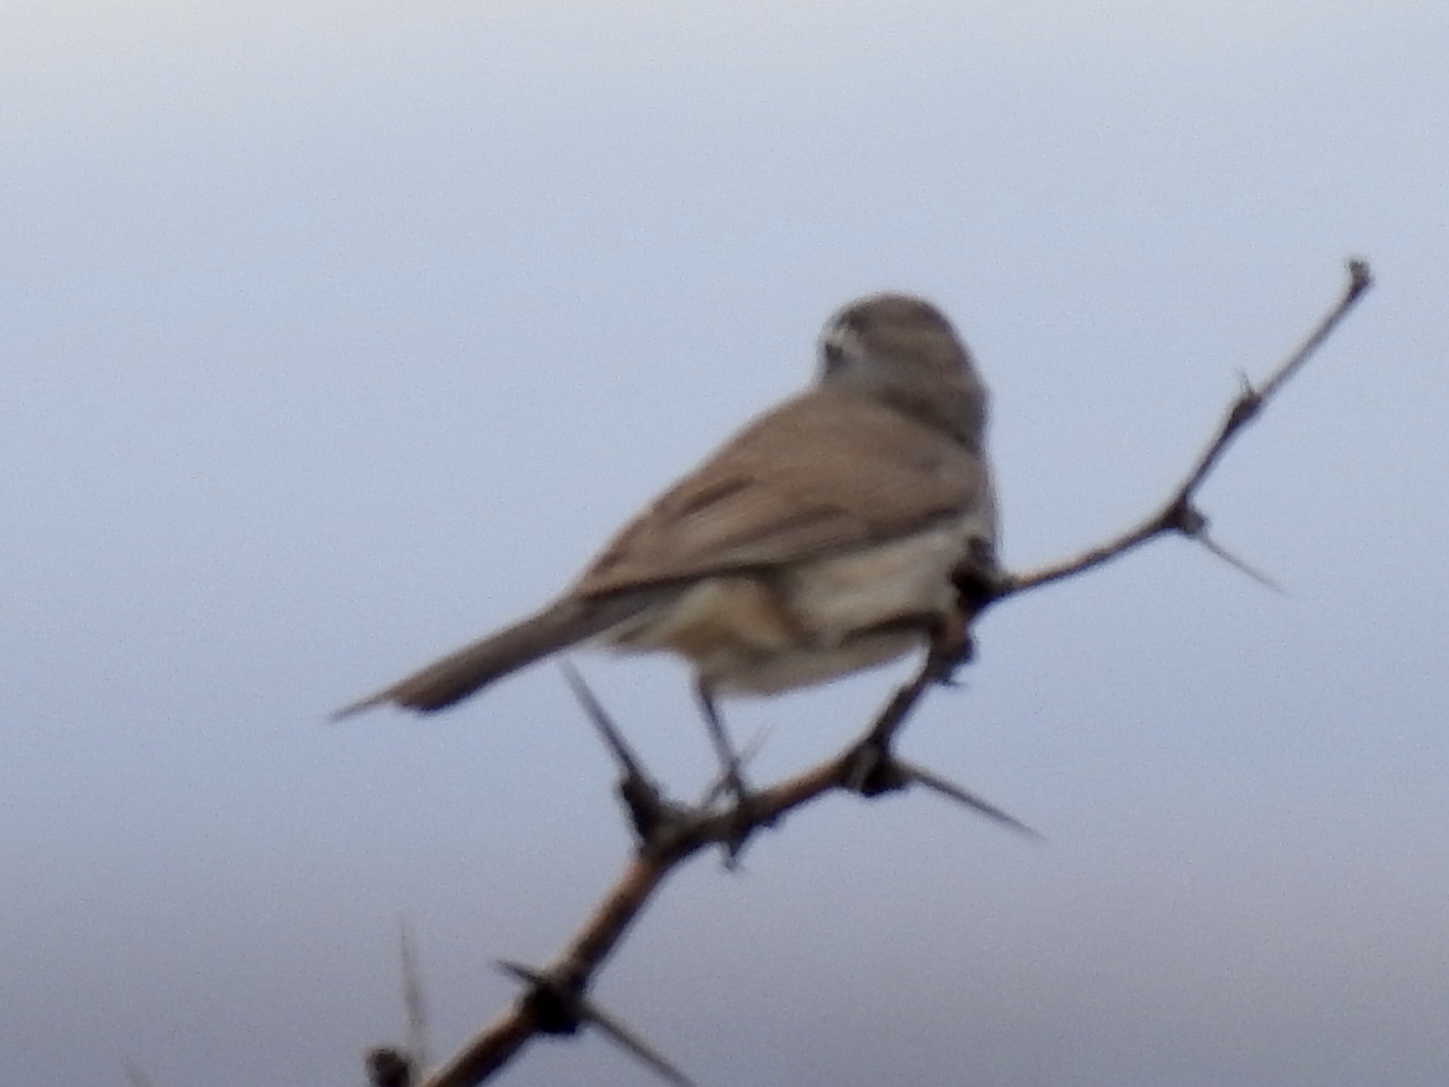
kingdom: Animalia
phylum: Chordata
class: Aves
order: Passeriformes
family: Passerellidae
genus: Amphispiza
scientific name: Amphispiza bilineata
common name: Black-throated sparrow
